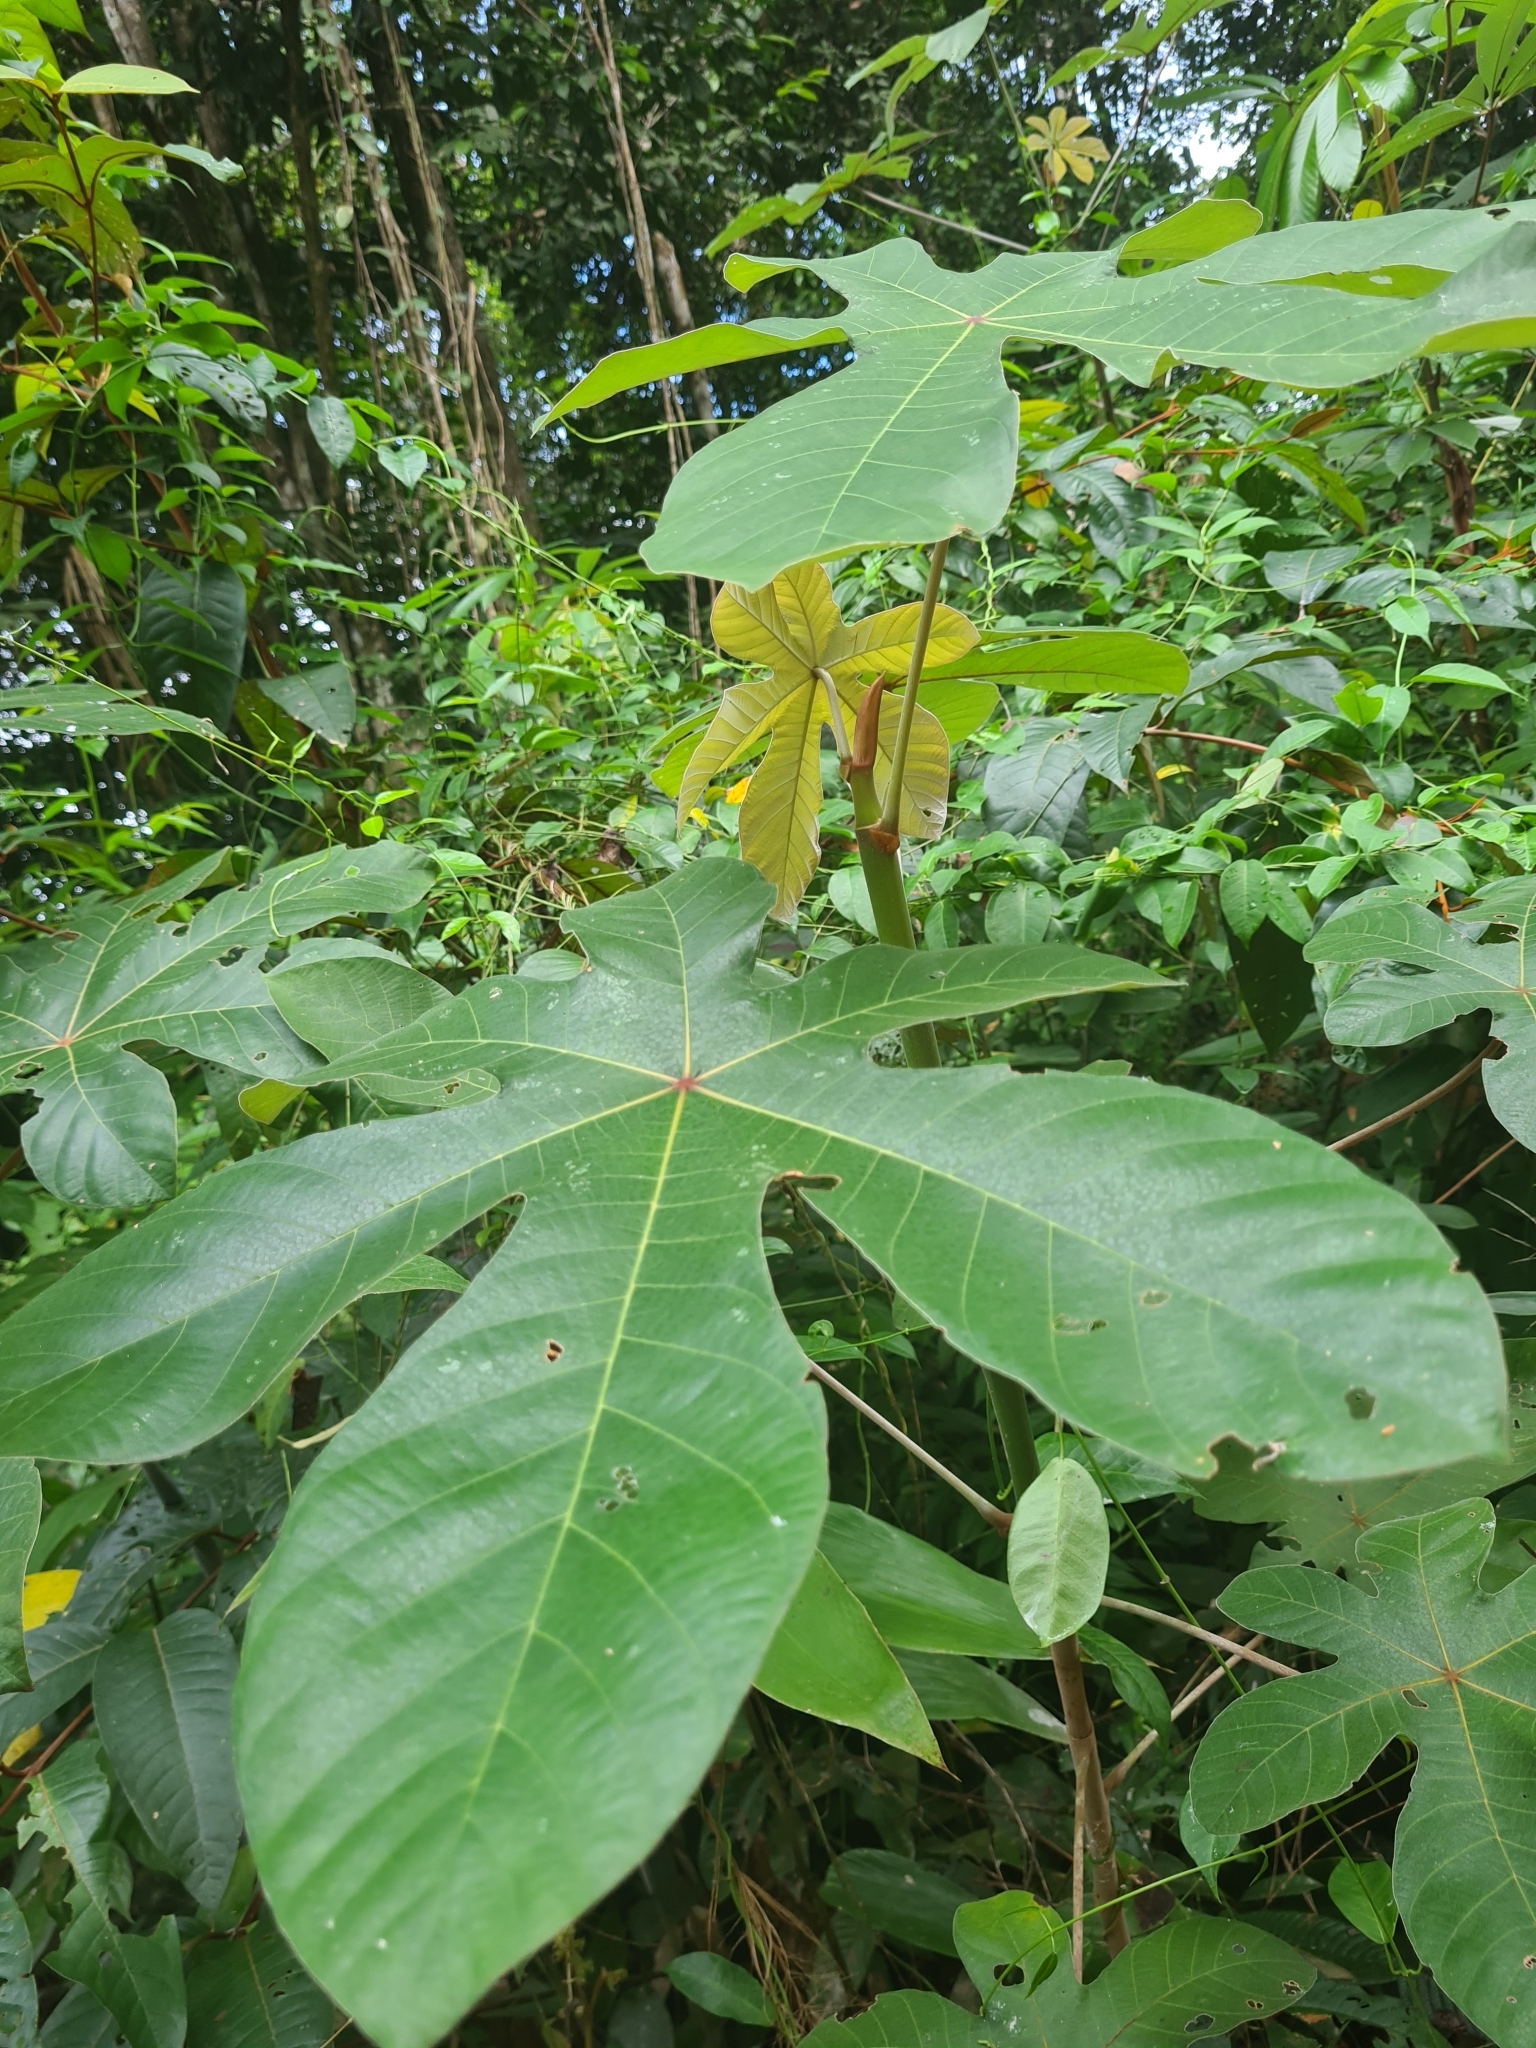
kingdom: Plantae
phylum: Tracheophyta
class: Magnoliopsida
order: Rosales
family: Urticaceae
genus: Cecropia
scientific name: Cecropia obtusa
